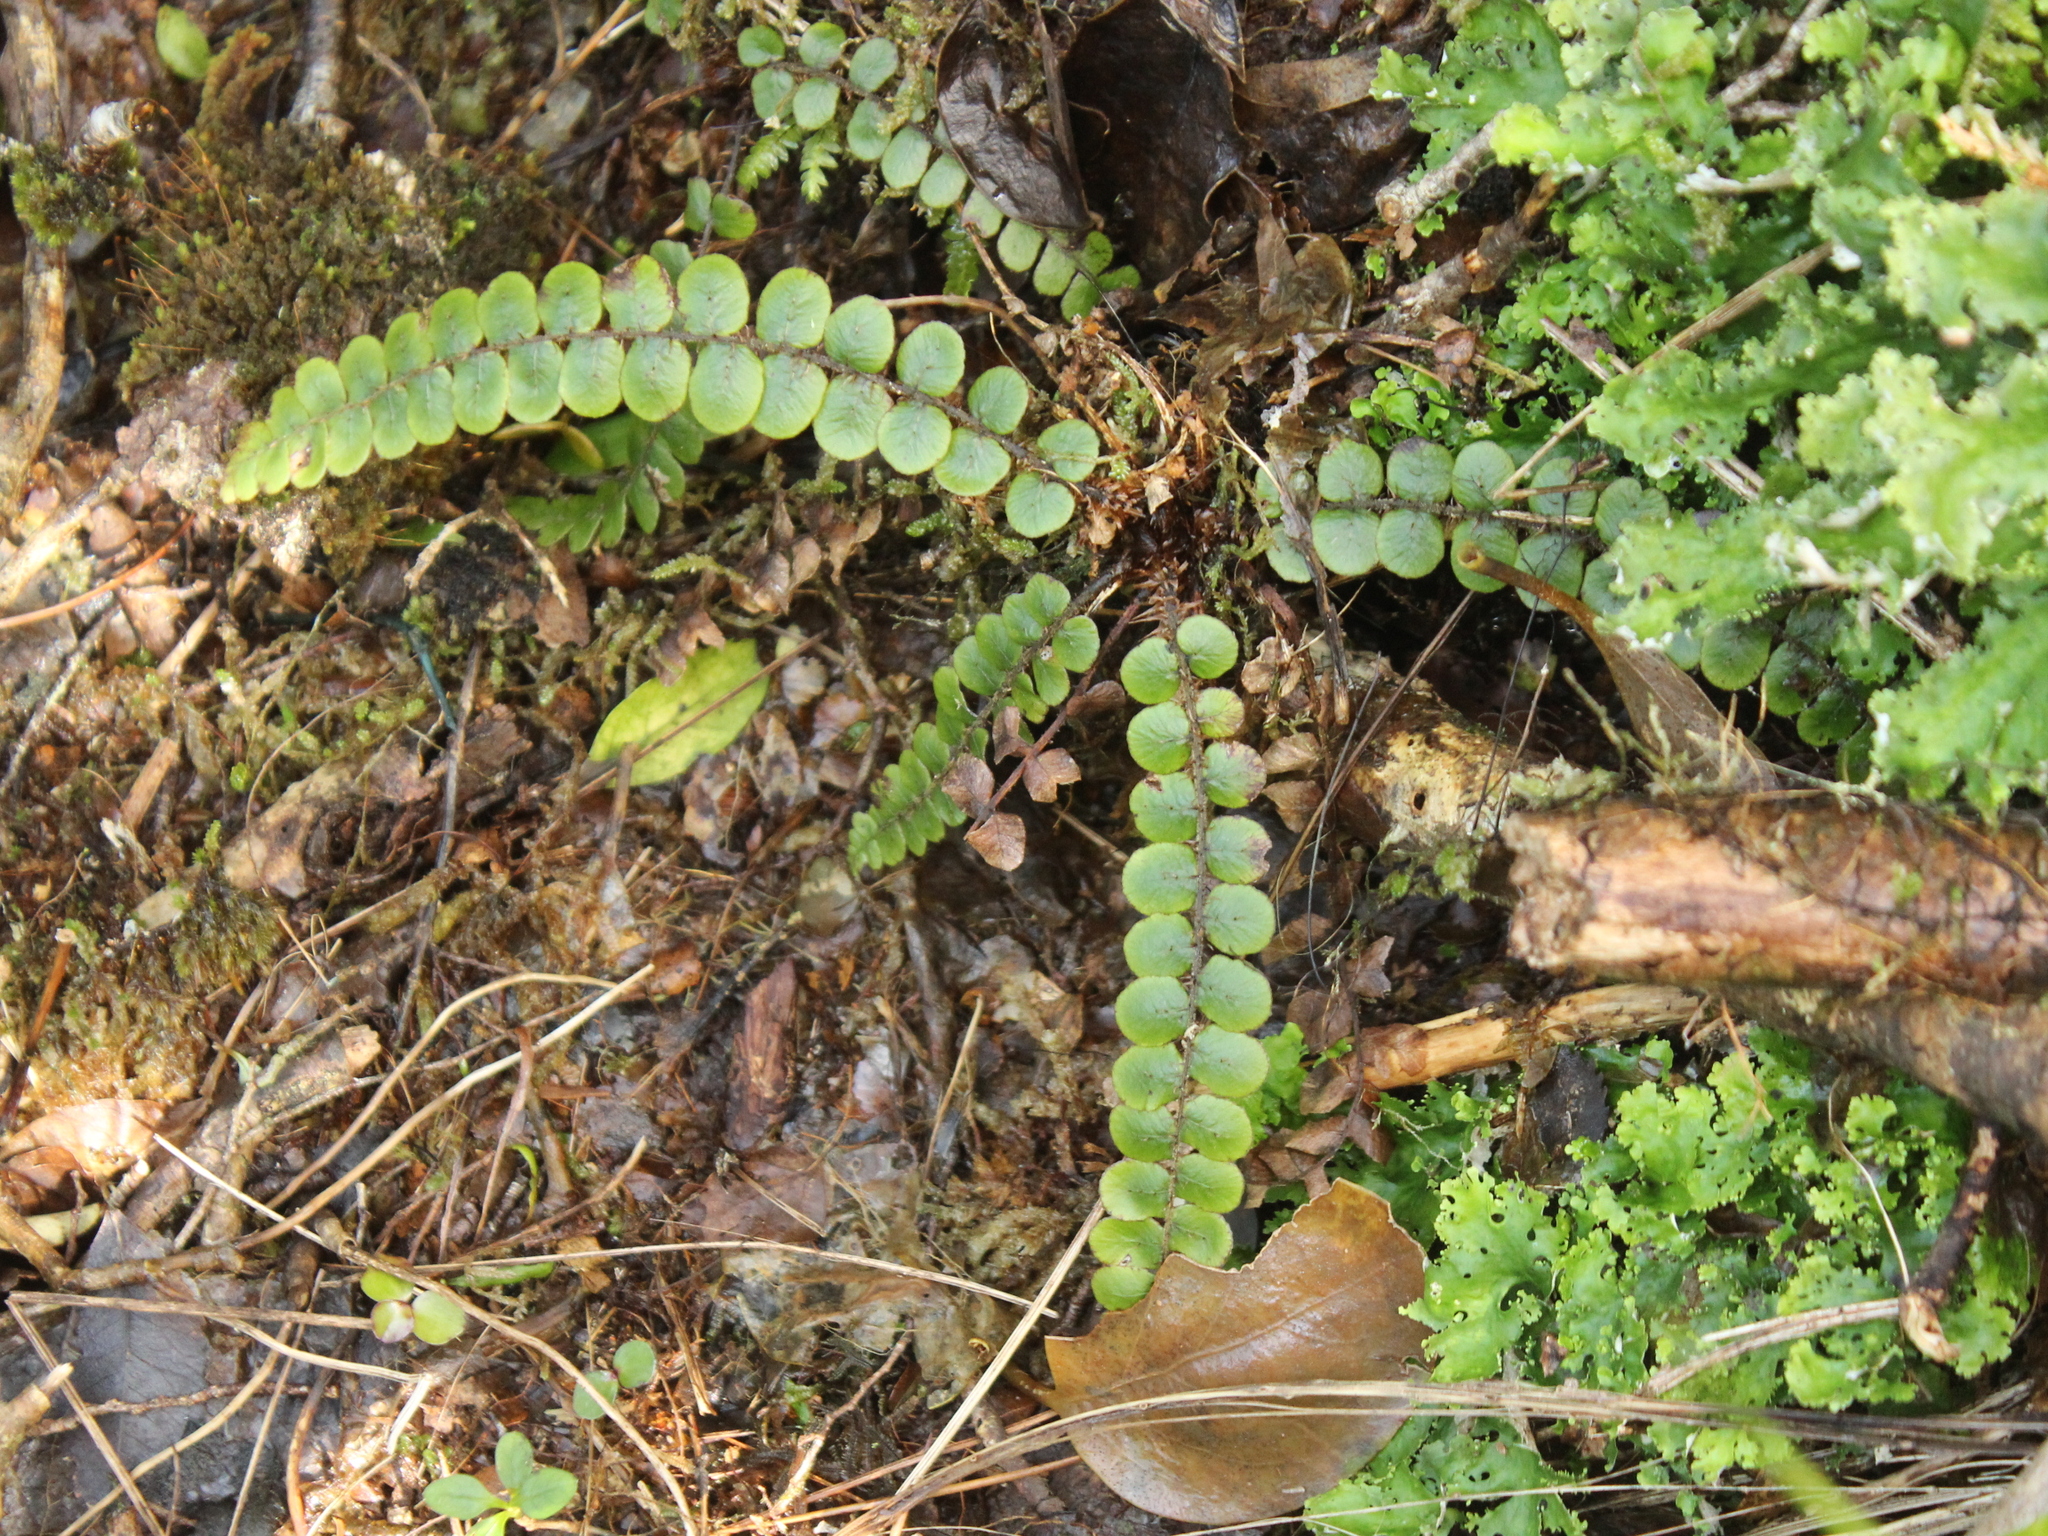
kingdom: Plantae
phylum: Tracheophyta
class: Polypodiopsida
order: Polypodiales
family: Blechnaceae
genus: Cranfillia
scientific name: Cranfillia fluviatilis
